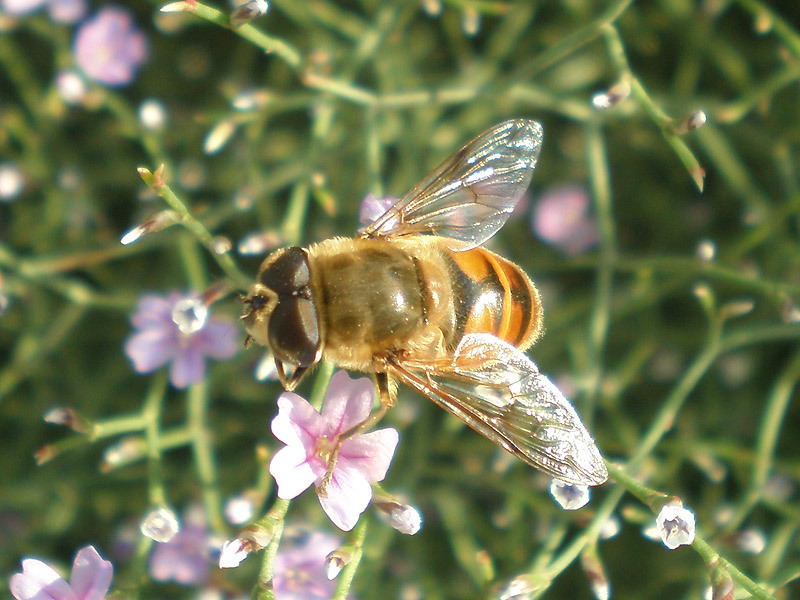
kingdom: Animalia
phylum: Arthropoda
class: Insecta
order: Diptera
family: Syrphidae
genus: Eristalis
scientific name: Eristalis tenax
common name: Drone fly
